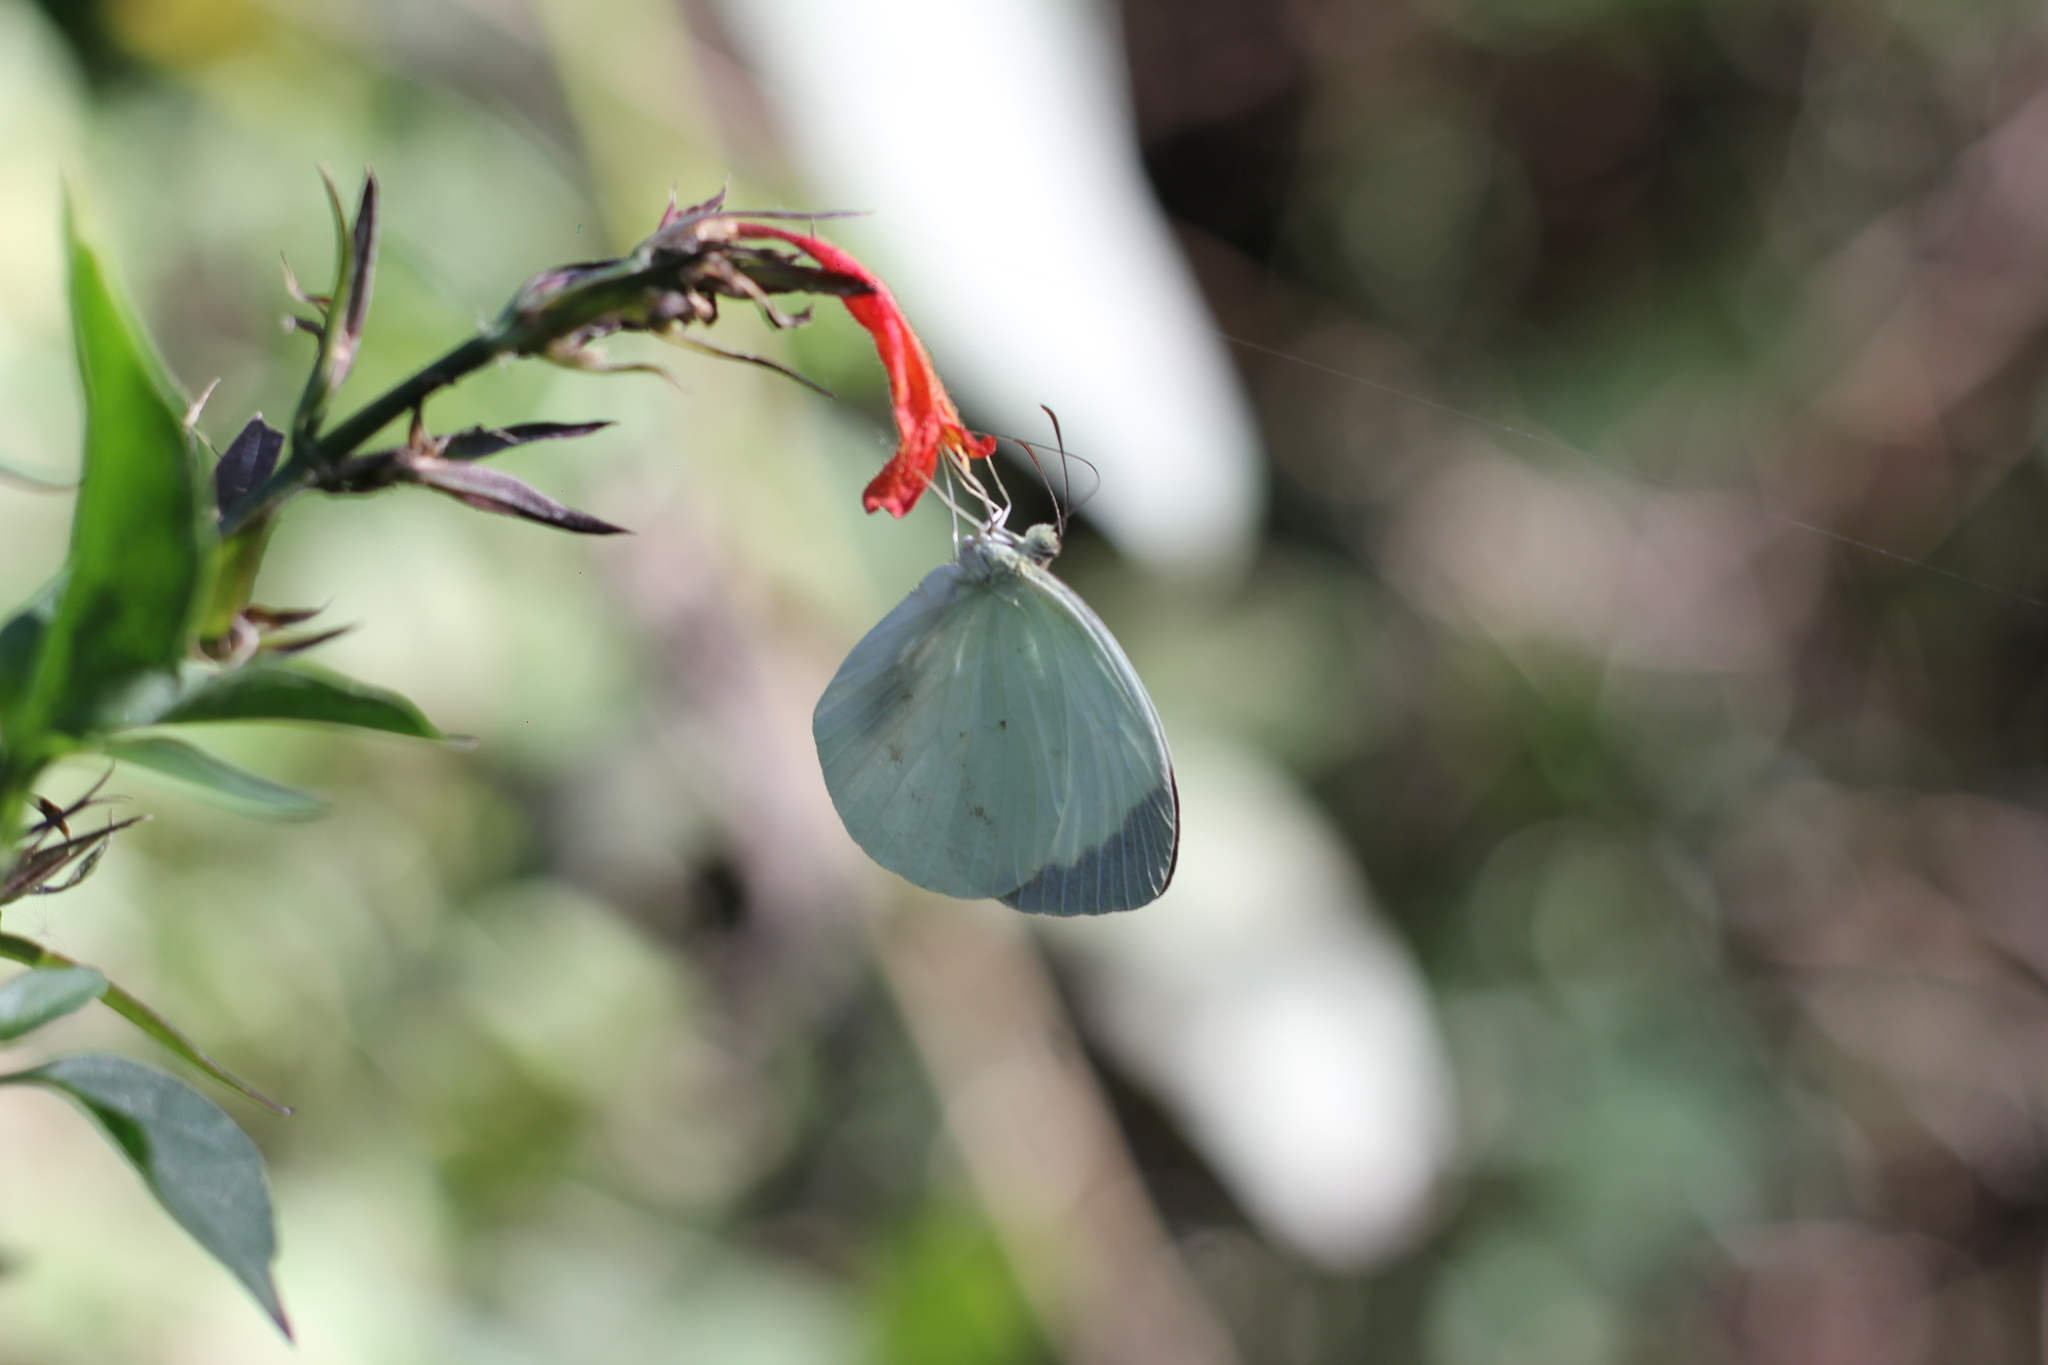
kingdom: Animalia
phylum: Arthropoda
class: Insecta
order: Lepidoptera
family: Pieridae
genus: Abaeis
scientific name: Abaeis albula
